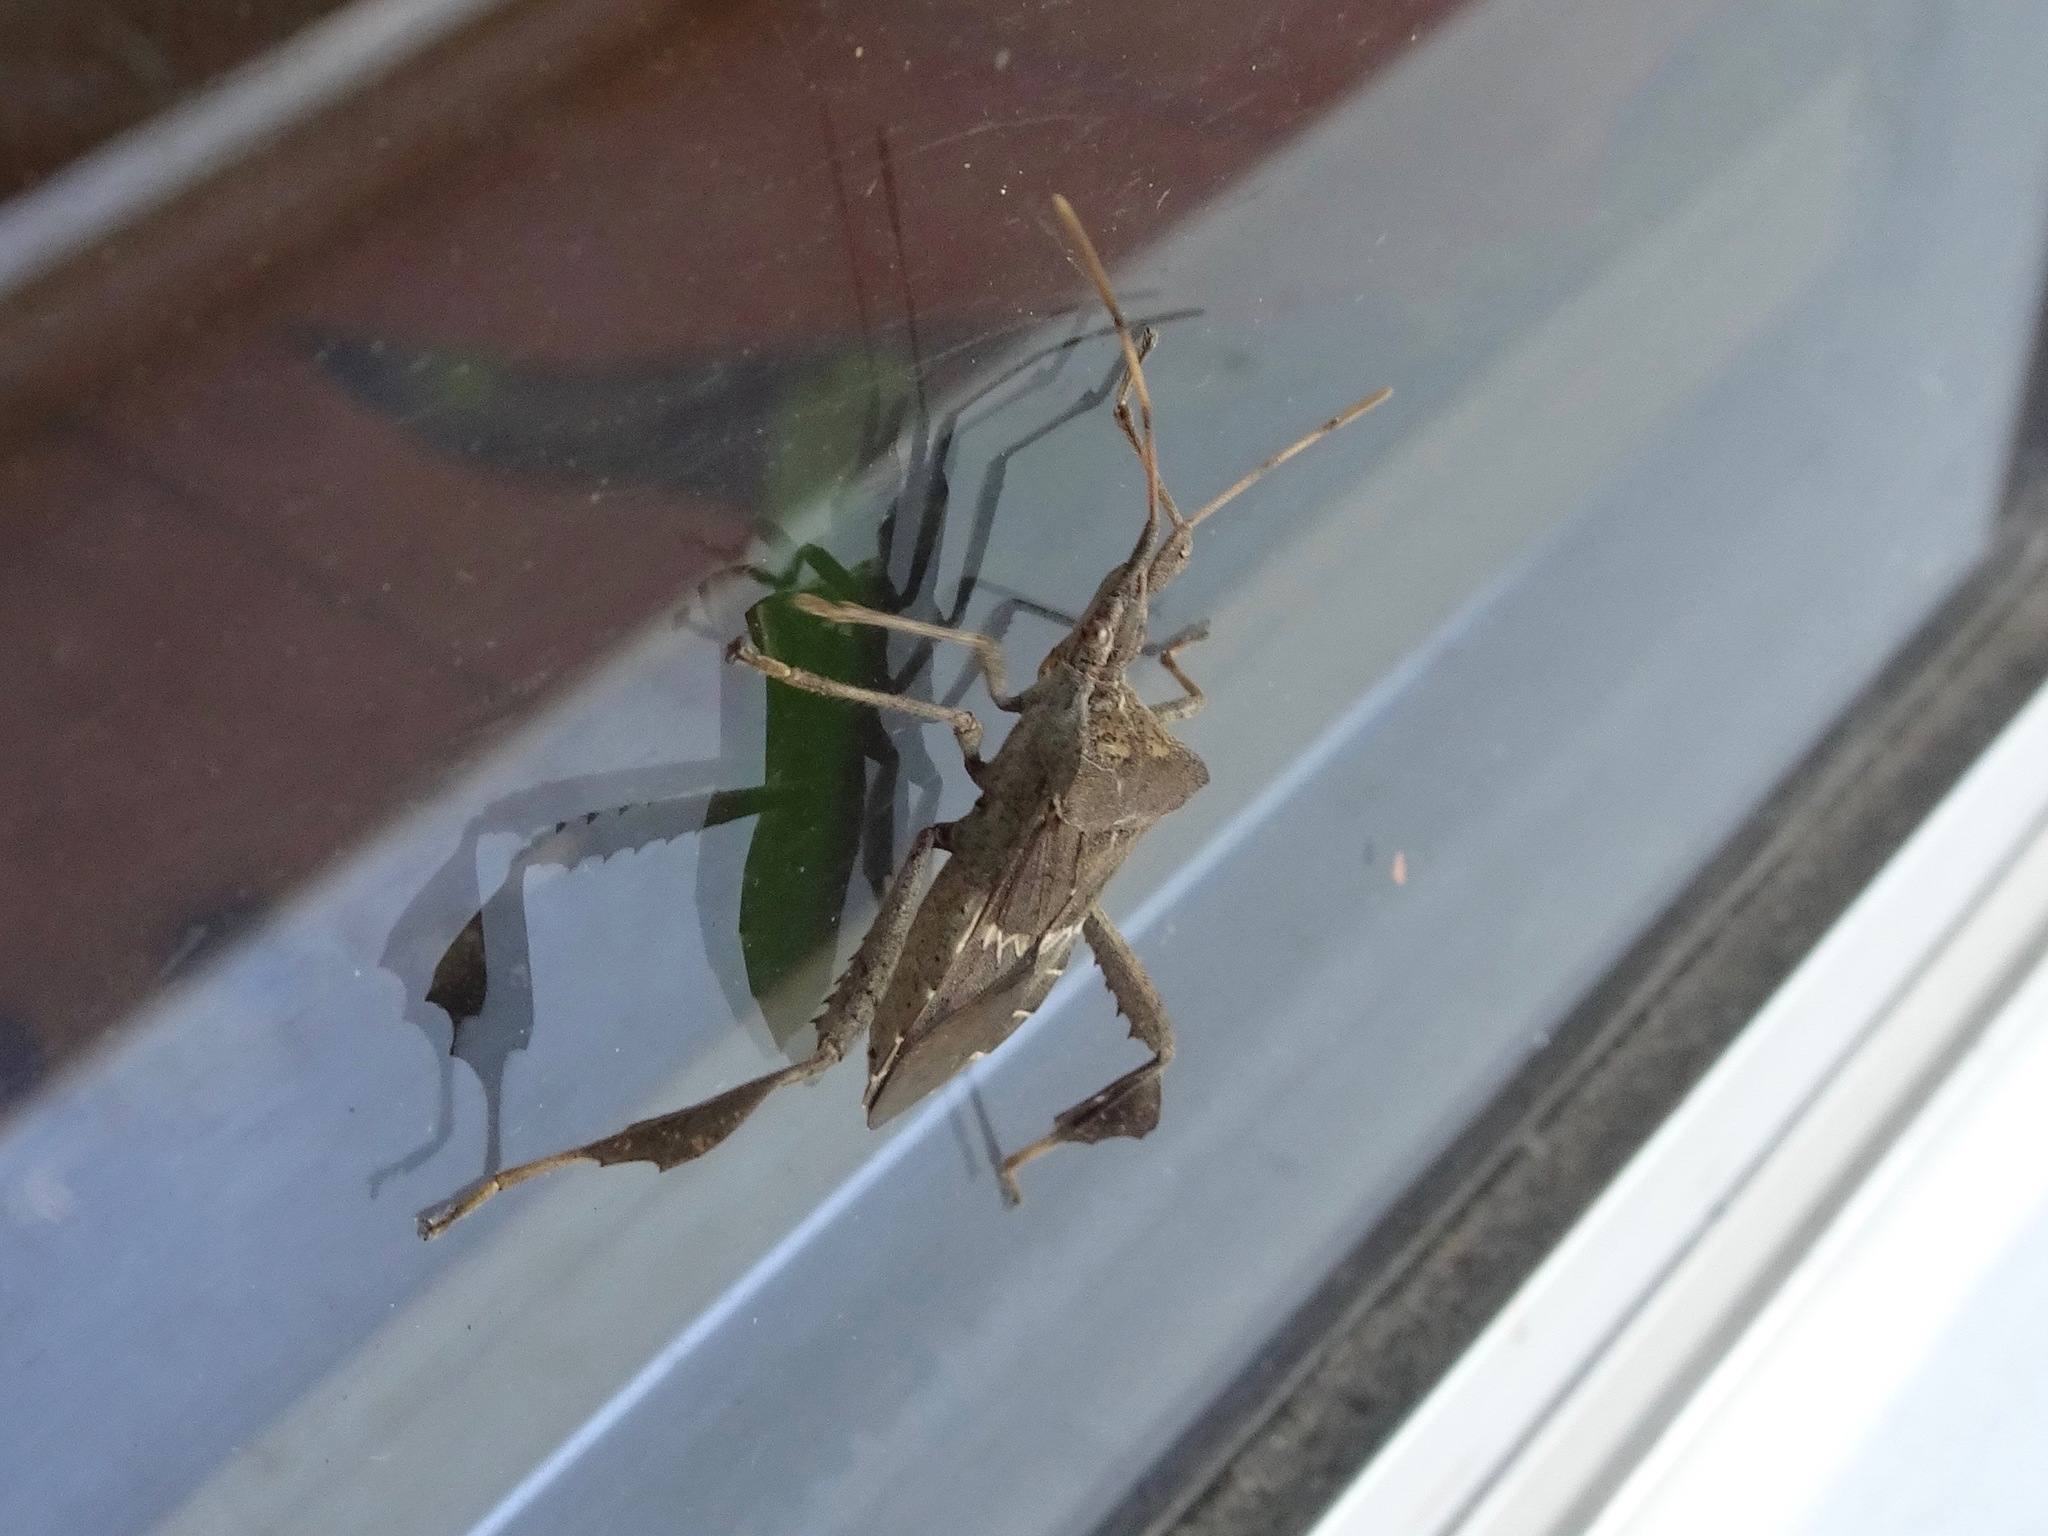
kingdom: Animalia
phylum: Arthropoda
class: Insecta
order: Hemiptera
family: Coreidae
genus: Leptoglossus
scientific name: Leptoglossus zonatus
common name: Large-legged bug
